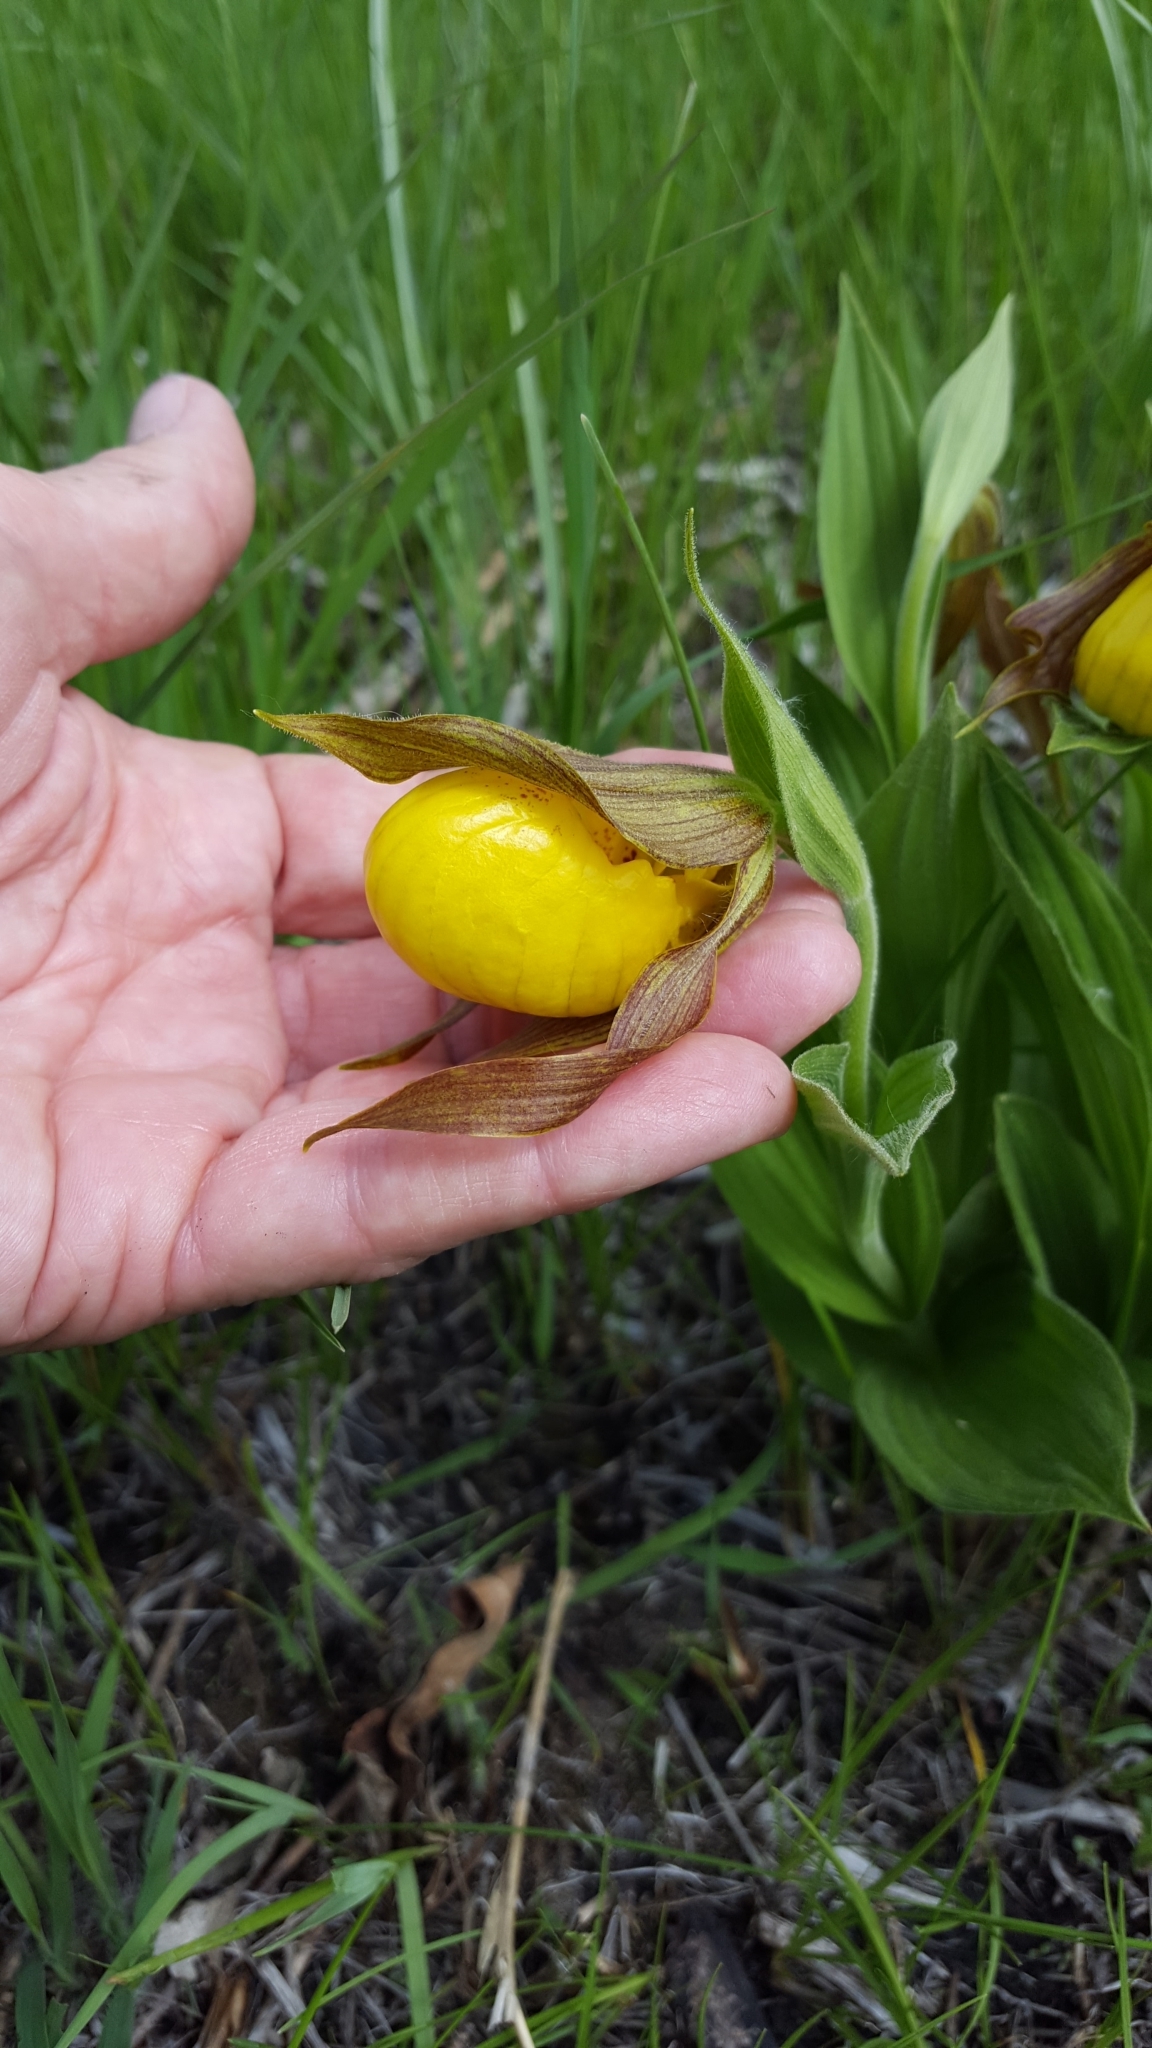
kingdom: Plantae
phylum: Tracheophyta
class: Liliopsida
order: Asparagales
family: Orchidaceae
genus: Cypripedium
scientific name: Cypripedium parviflorum
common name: American yellow lady's-slipper
